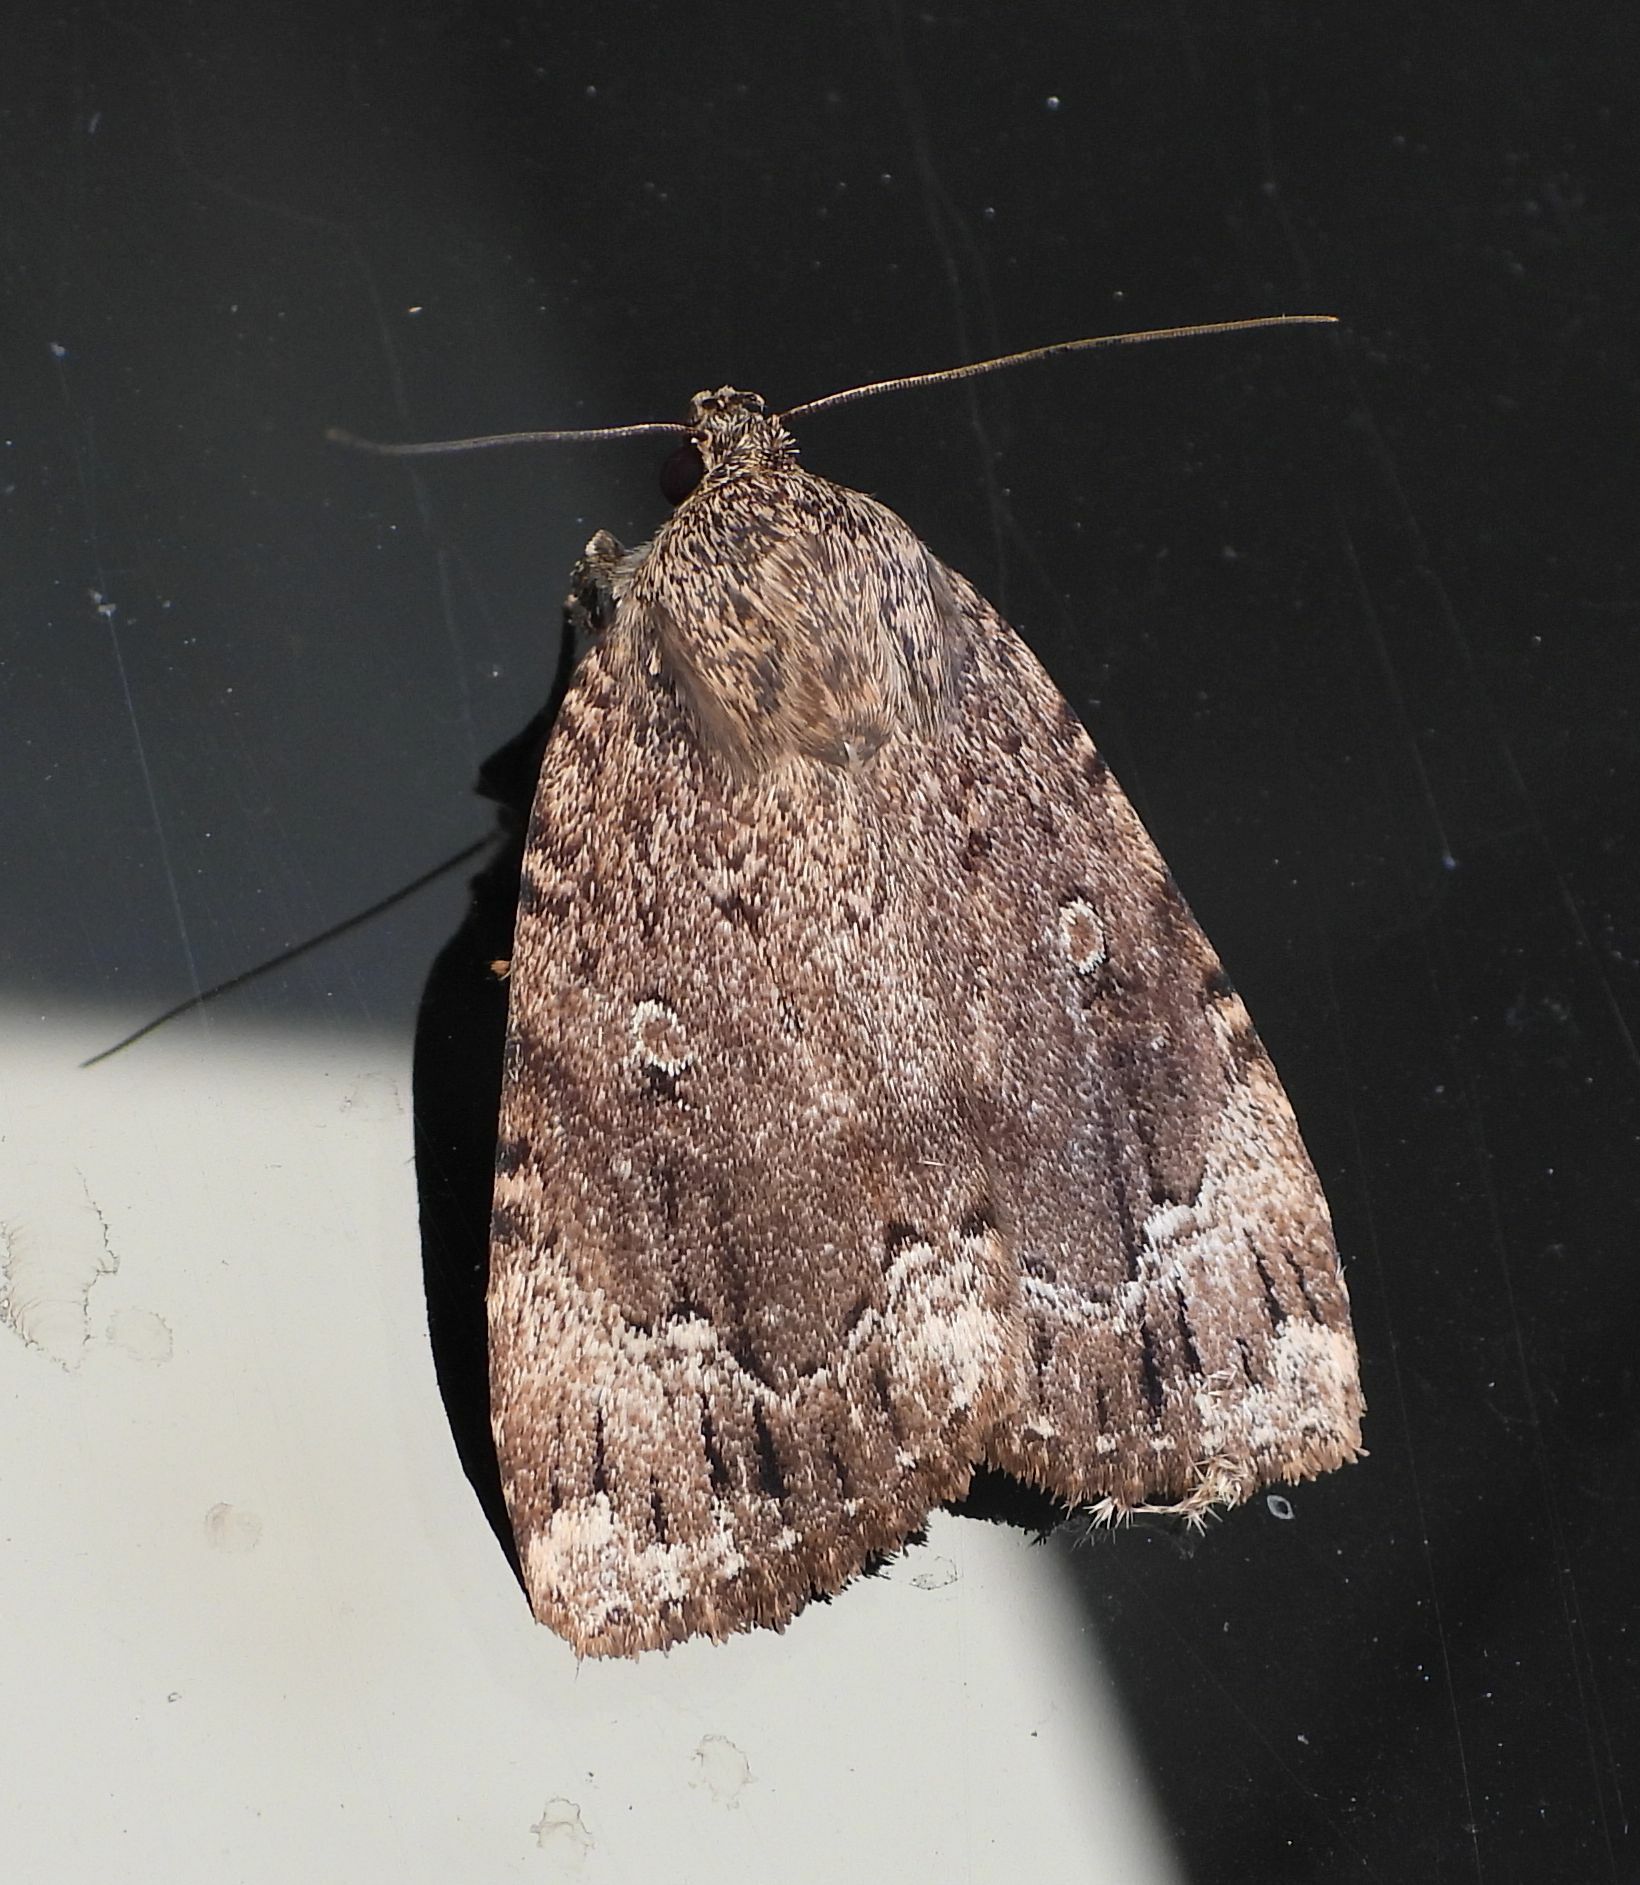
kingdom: Animalia
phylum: Arthropoda
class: Insecta
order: Lepidoptera
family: Noctuidae
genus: Amphipyra
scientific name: Amphipyra pyramidoides
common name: American copper underwing
